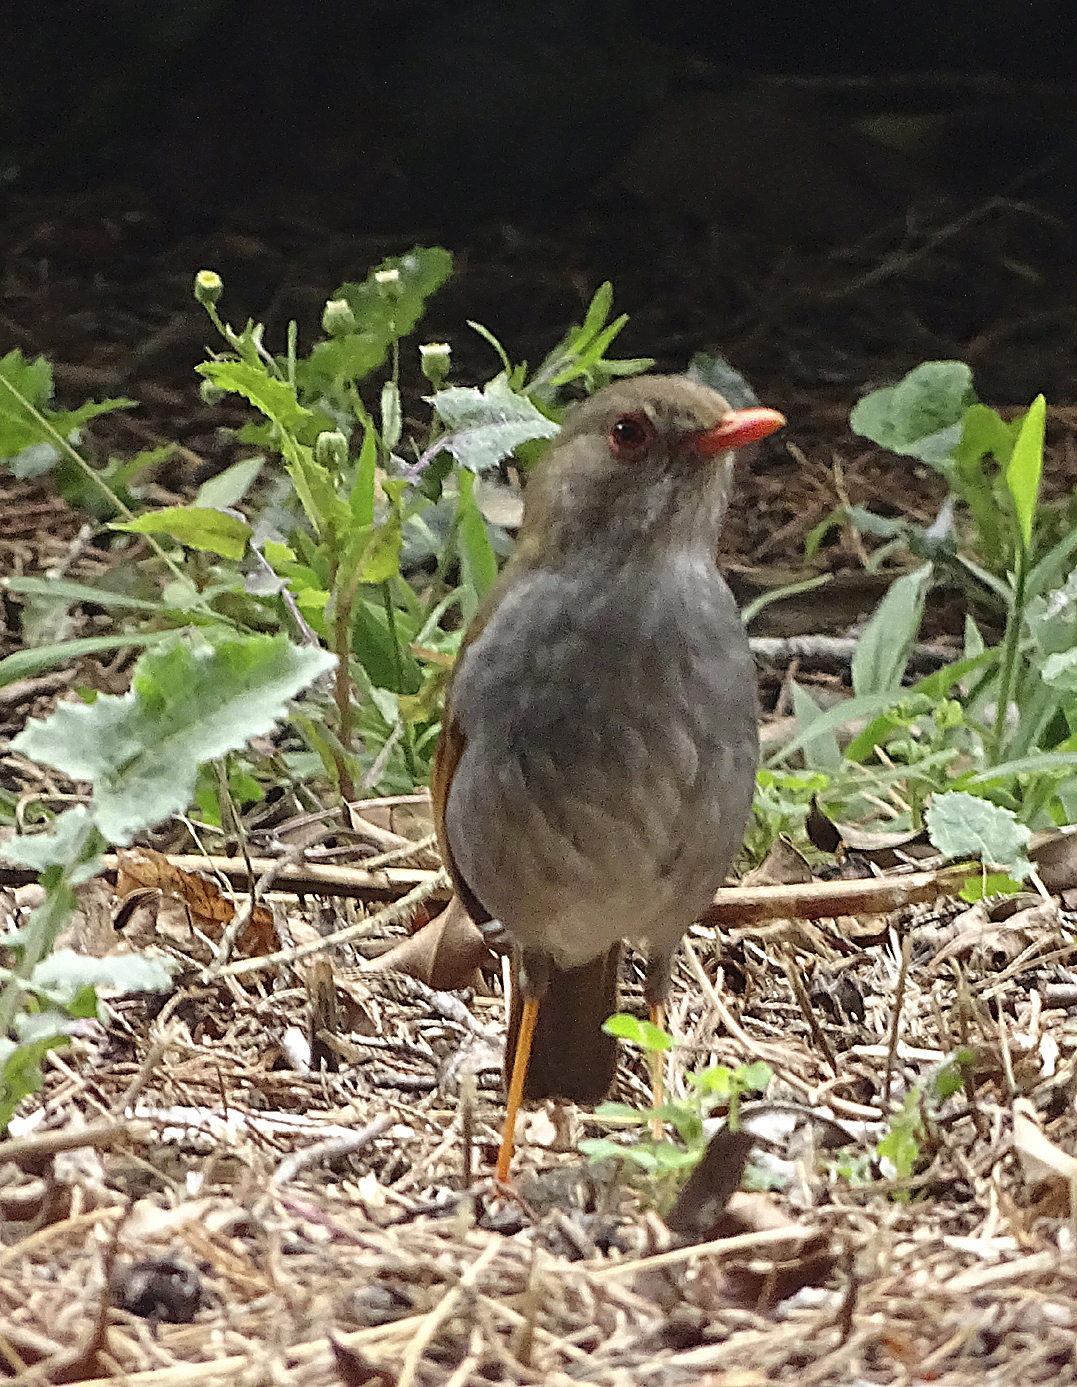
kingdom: Animalia
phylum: Chordata
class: Aves
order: Passeriformes
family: Turdidae
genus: Catharus
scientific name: Catharus aurantiirostris
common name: Orange-billed nightingale-thrush
